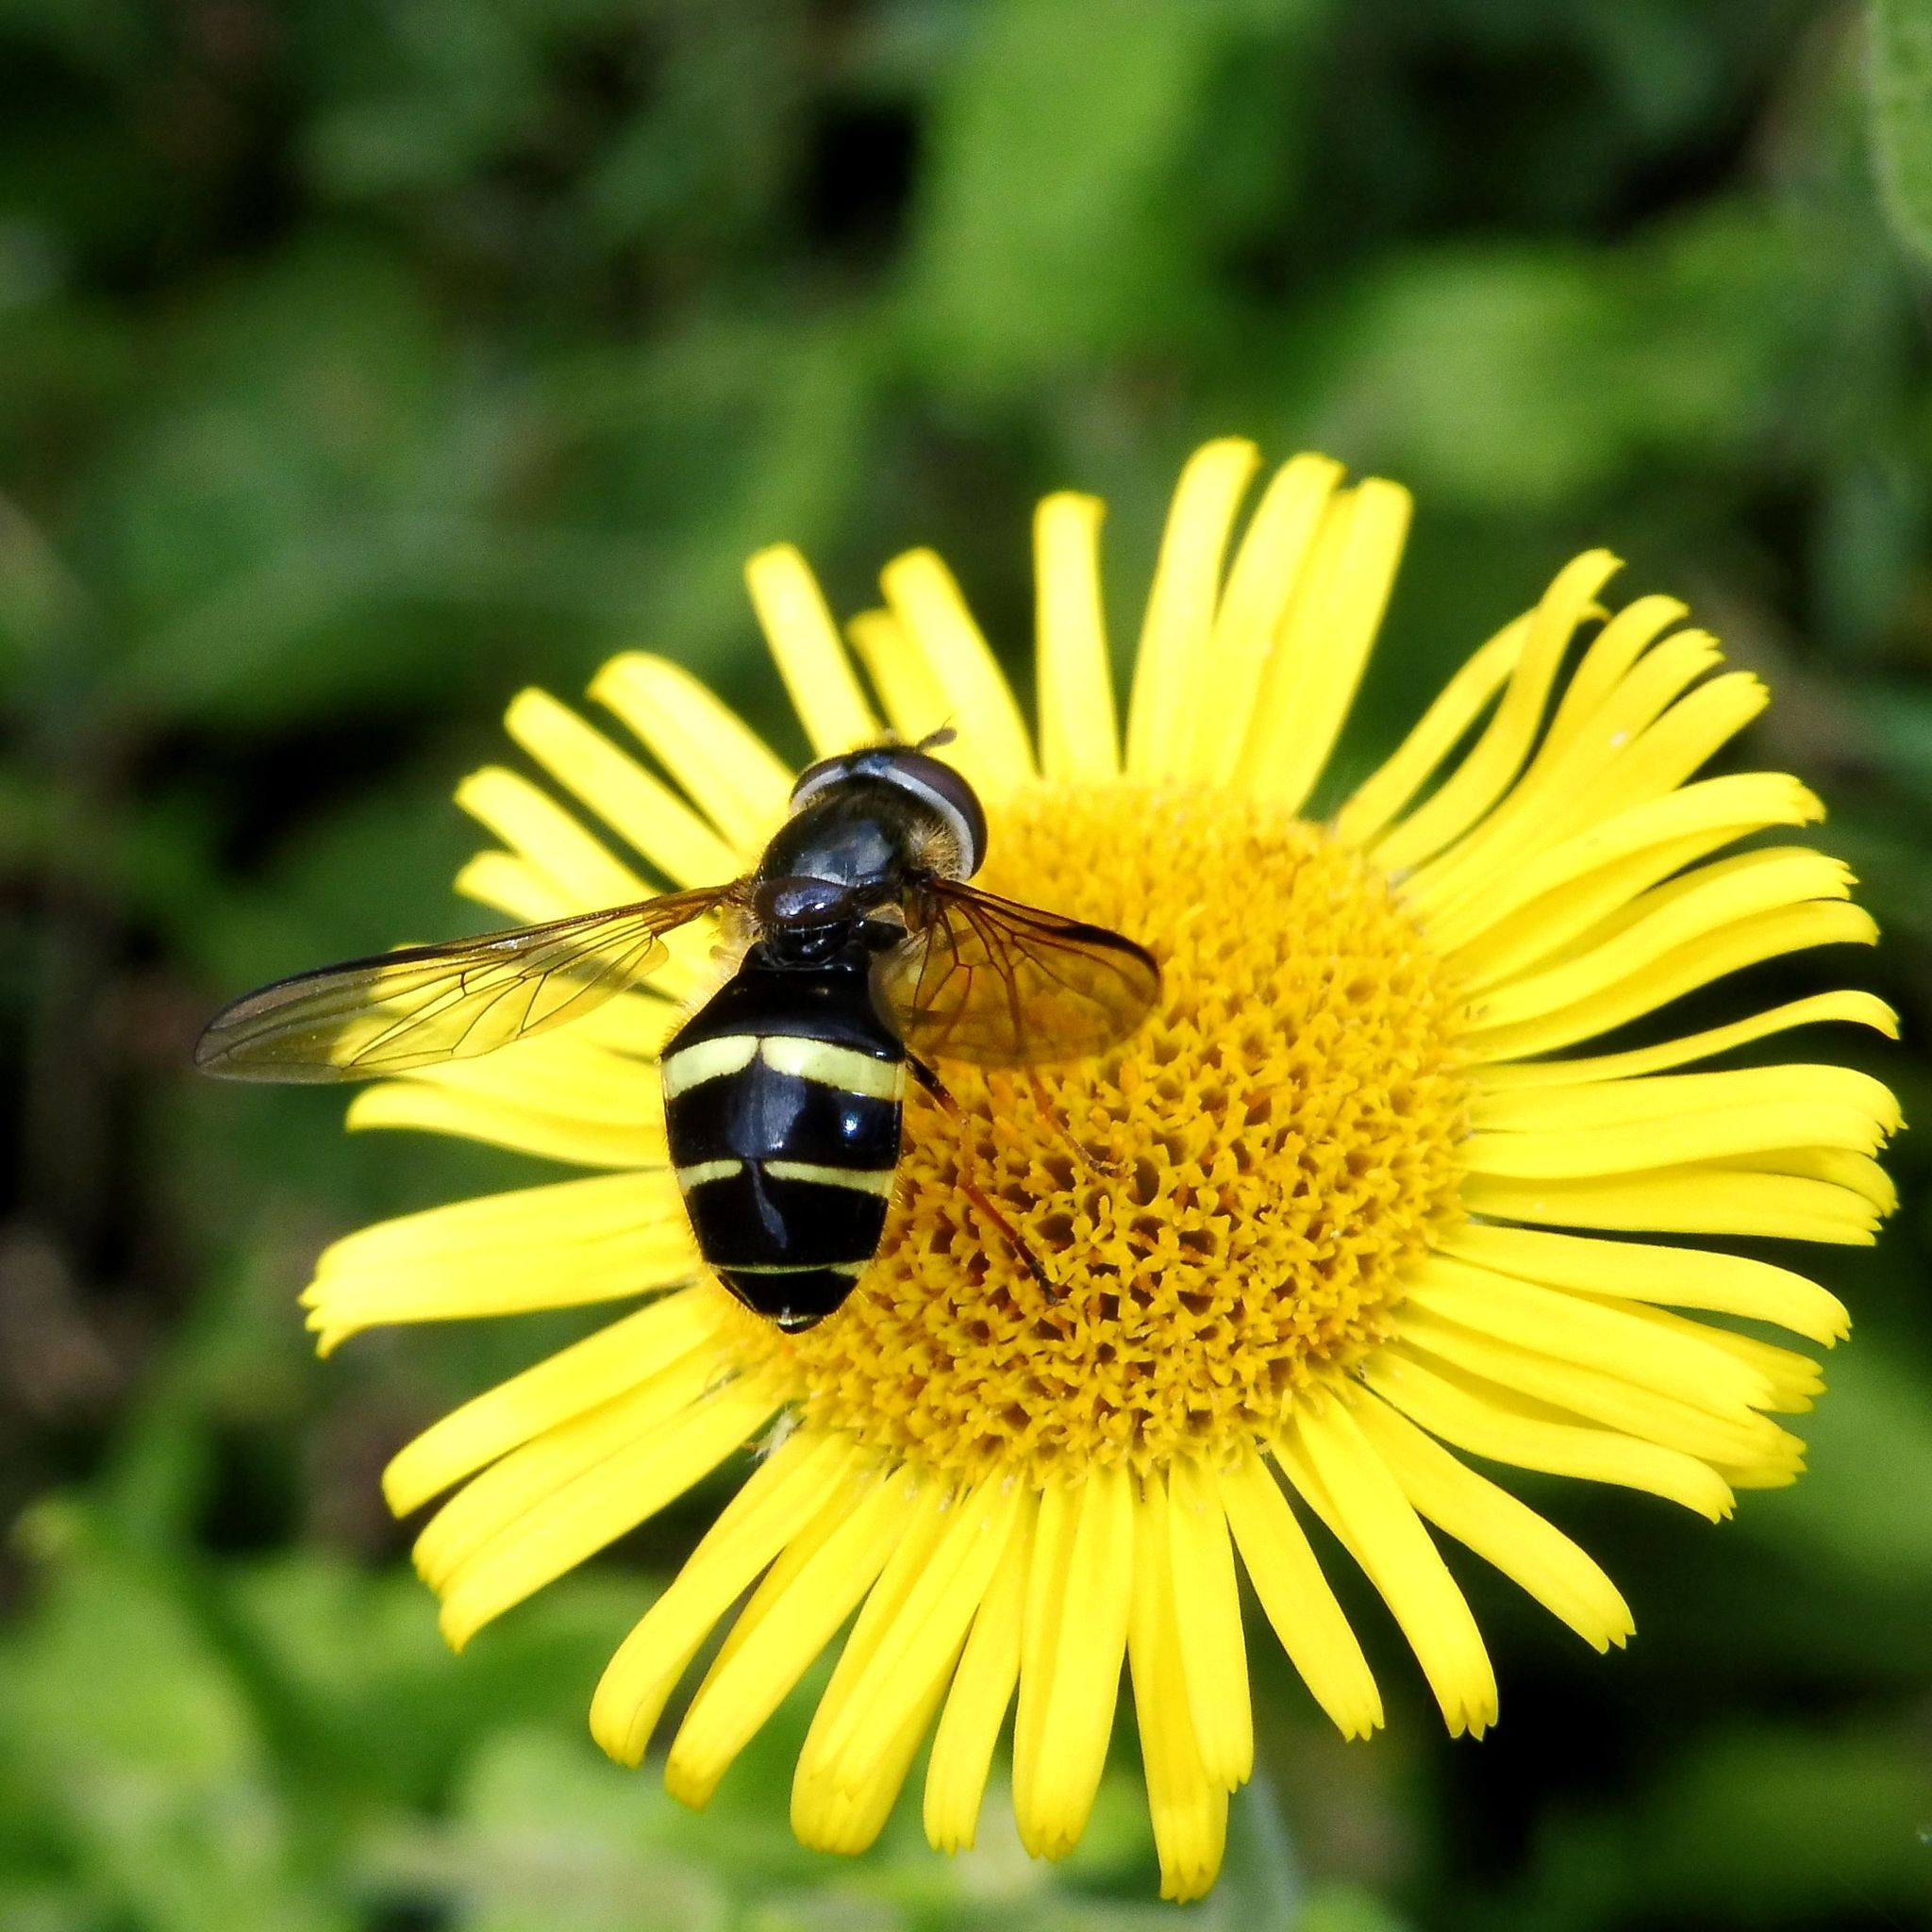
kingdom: Animalia
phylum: Arthropoda
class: Insecta
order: Diptera
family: Syrphidae
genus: Dasysyrphus
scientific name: Dasysyrphus tricinctus
